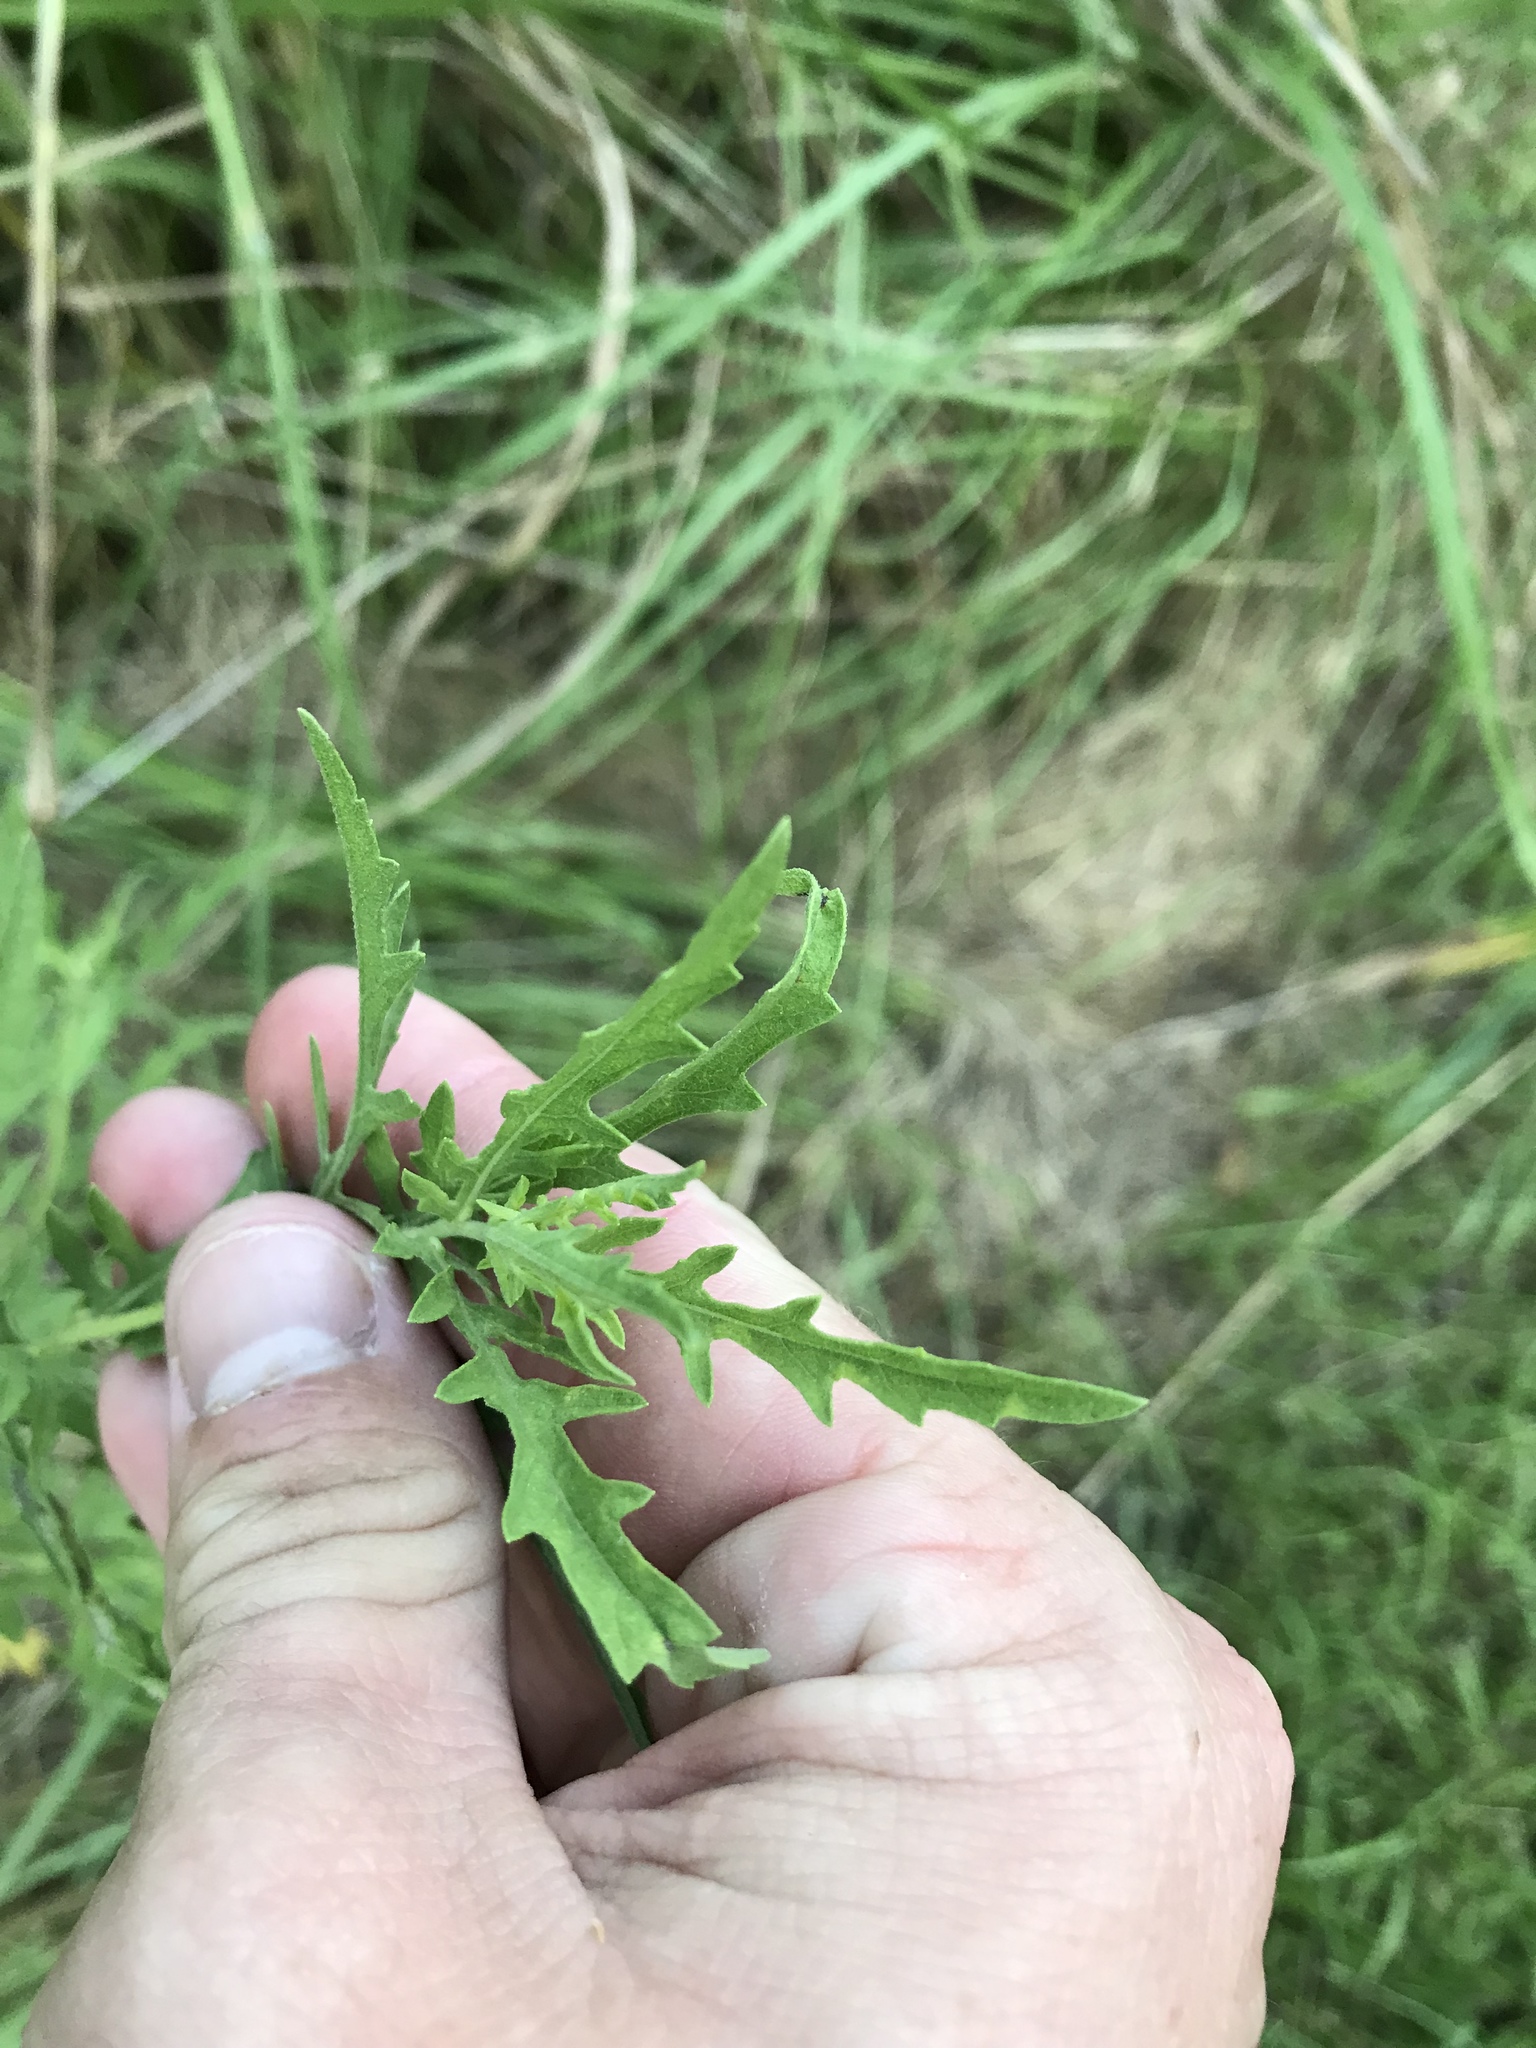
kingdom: Plantae
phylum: Tracheophyta
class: Magnoliopsida
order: Asterales
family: Asteraceae
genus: Ambrosia
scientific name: Ambrosia psilostachya
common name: Perennial ragweed
